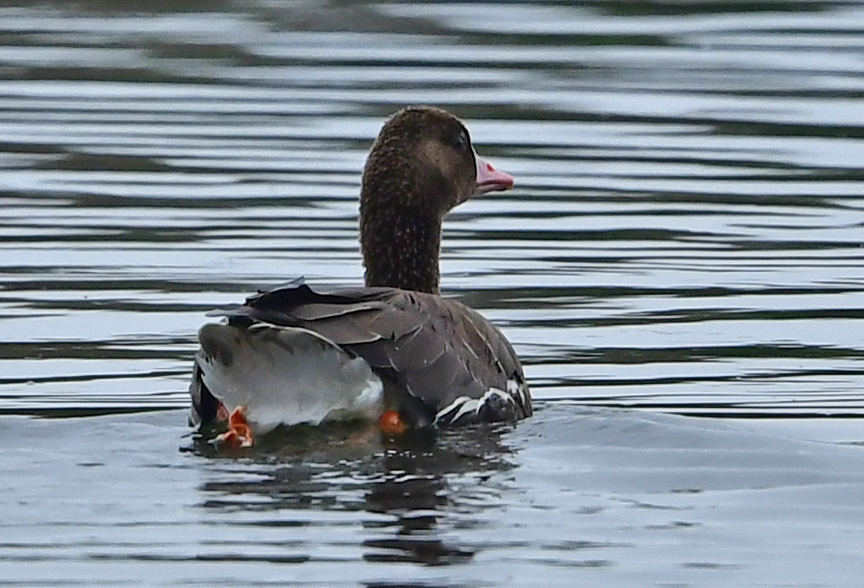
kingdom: Animalia
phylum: Chordata
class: Aves
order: Anseriformes
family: Anatidae
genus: Anser
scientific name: Anser albifrons
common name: Greater white-fronted goose
